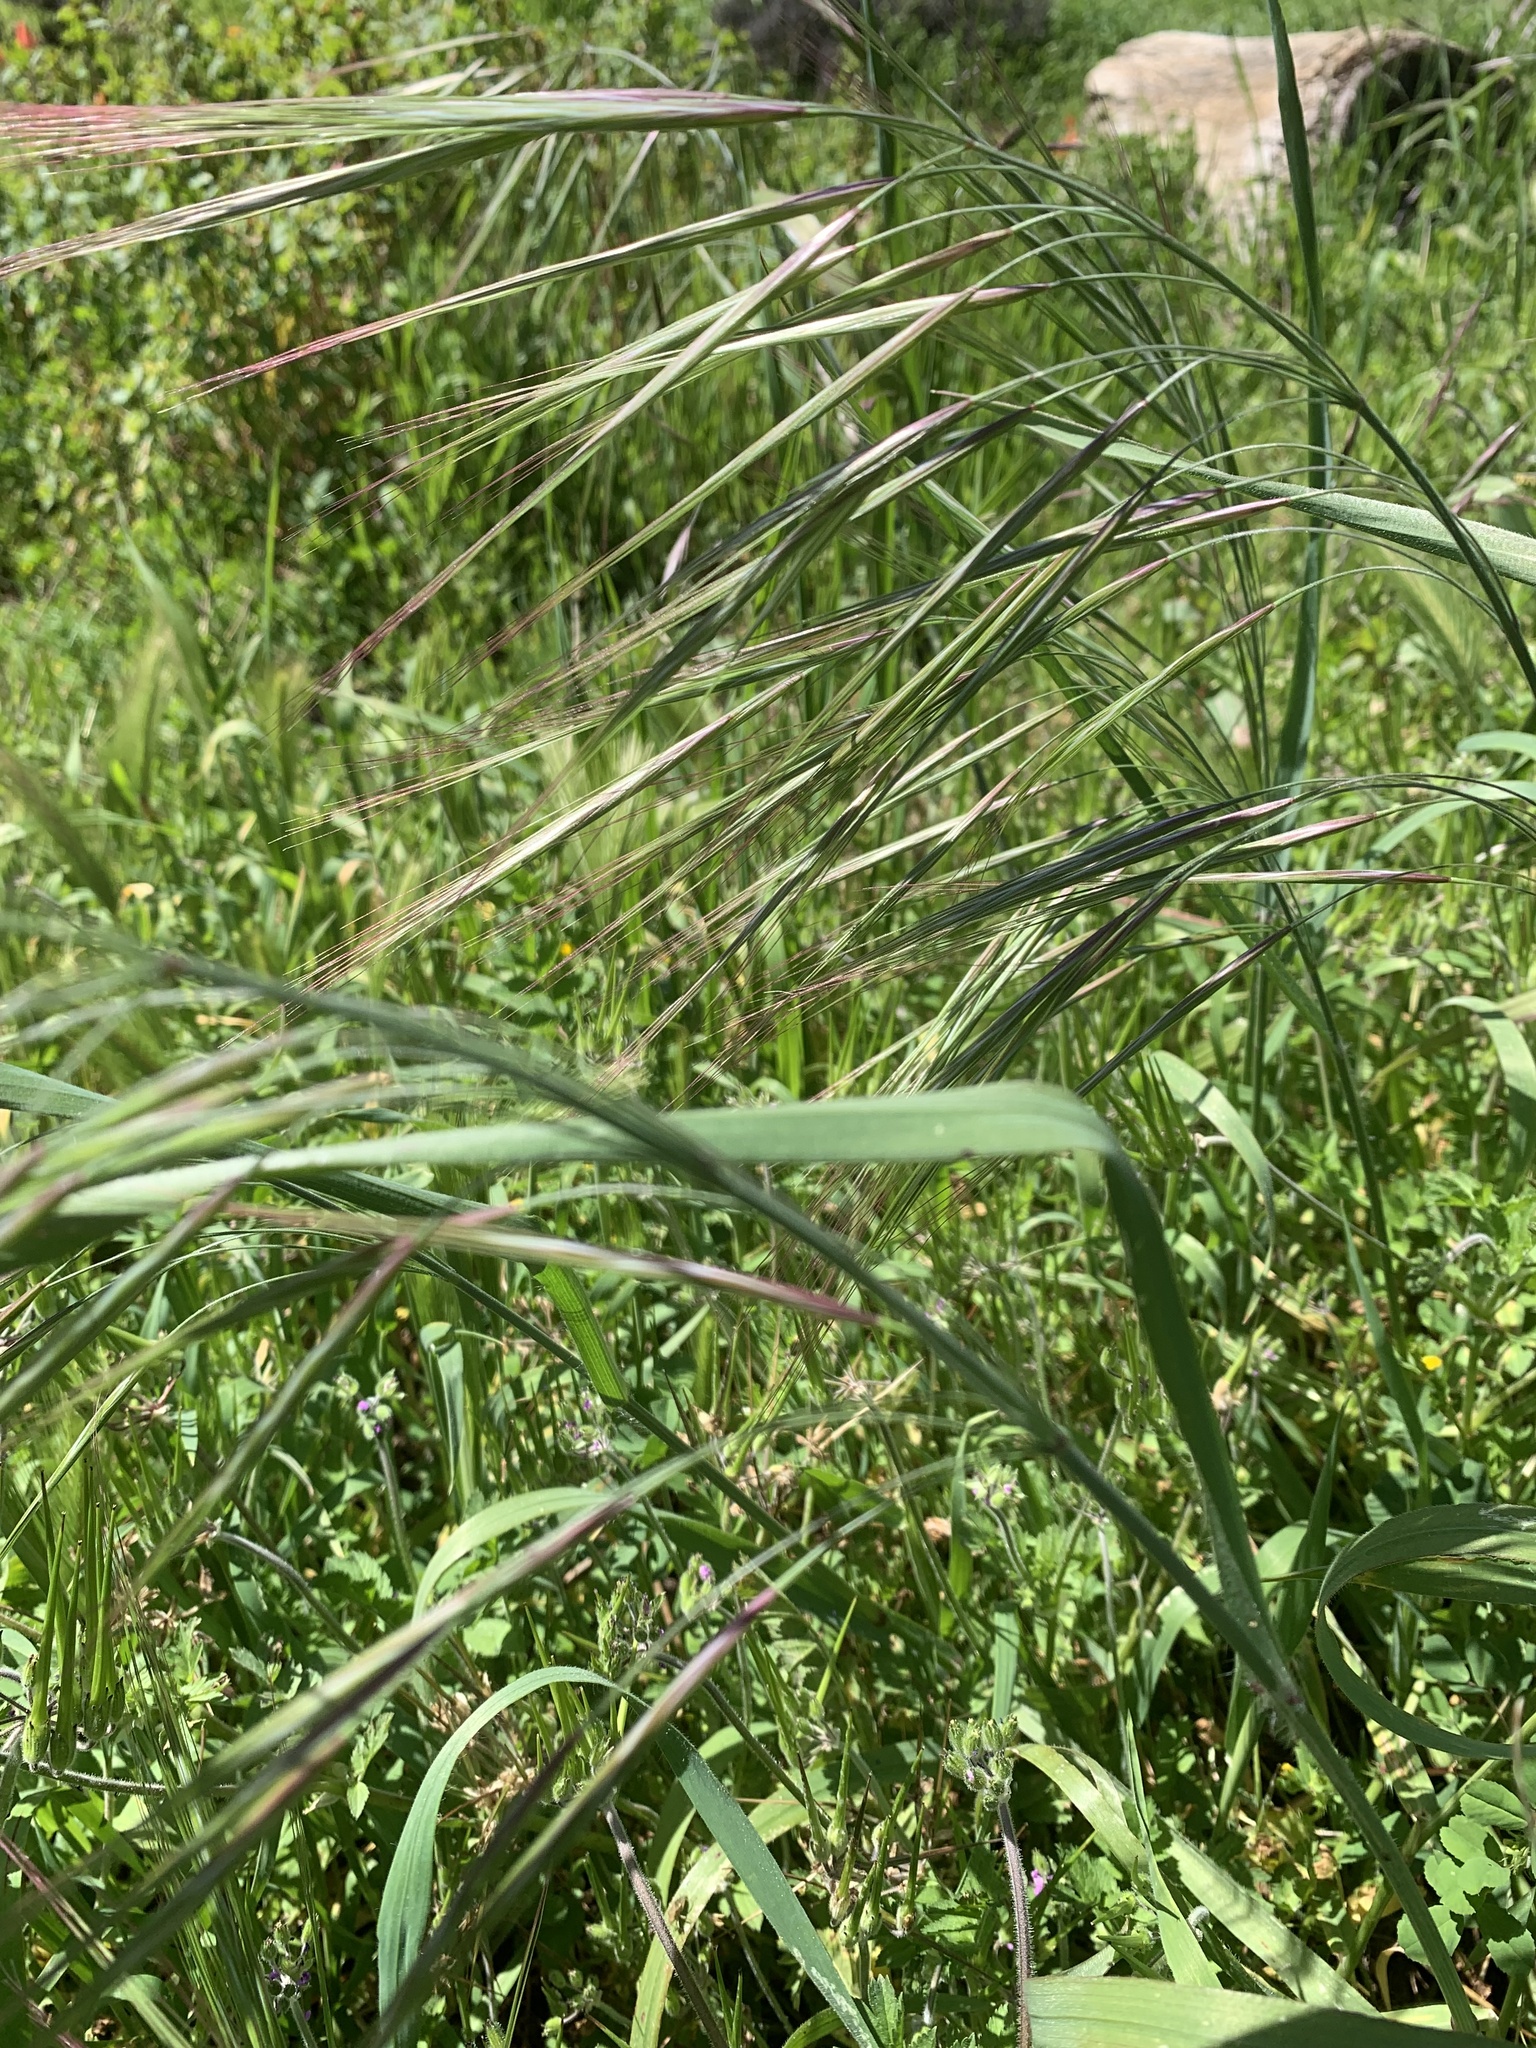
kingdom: Plantae
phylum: Tracheophyta
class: Liliopsida
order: Poales
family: Poaceae
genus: Bromus
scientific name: Bromus diandrus
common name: Ripgut brome
